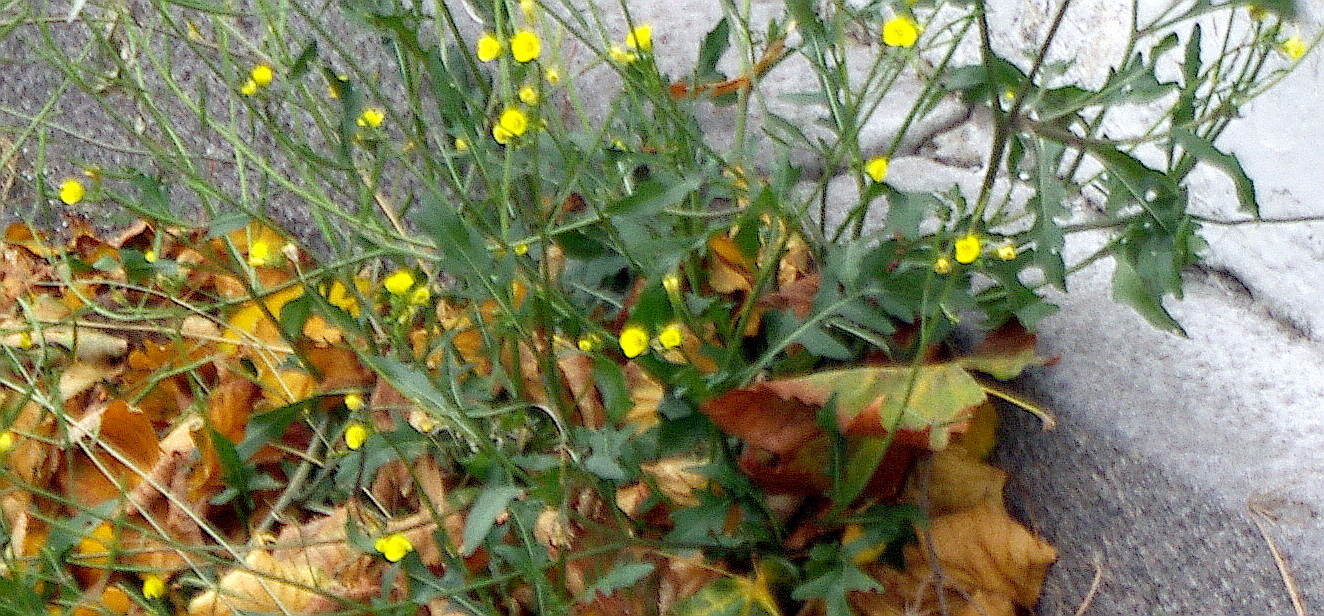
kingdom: Plantae
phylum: Tracheophyta
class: Magnoliopsida
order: Brassicales
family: Brassicaceae
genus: Diplotaxis
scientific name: Diplotaxis muralis
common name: Annual wall-rocket
